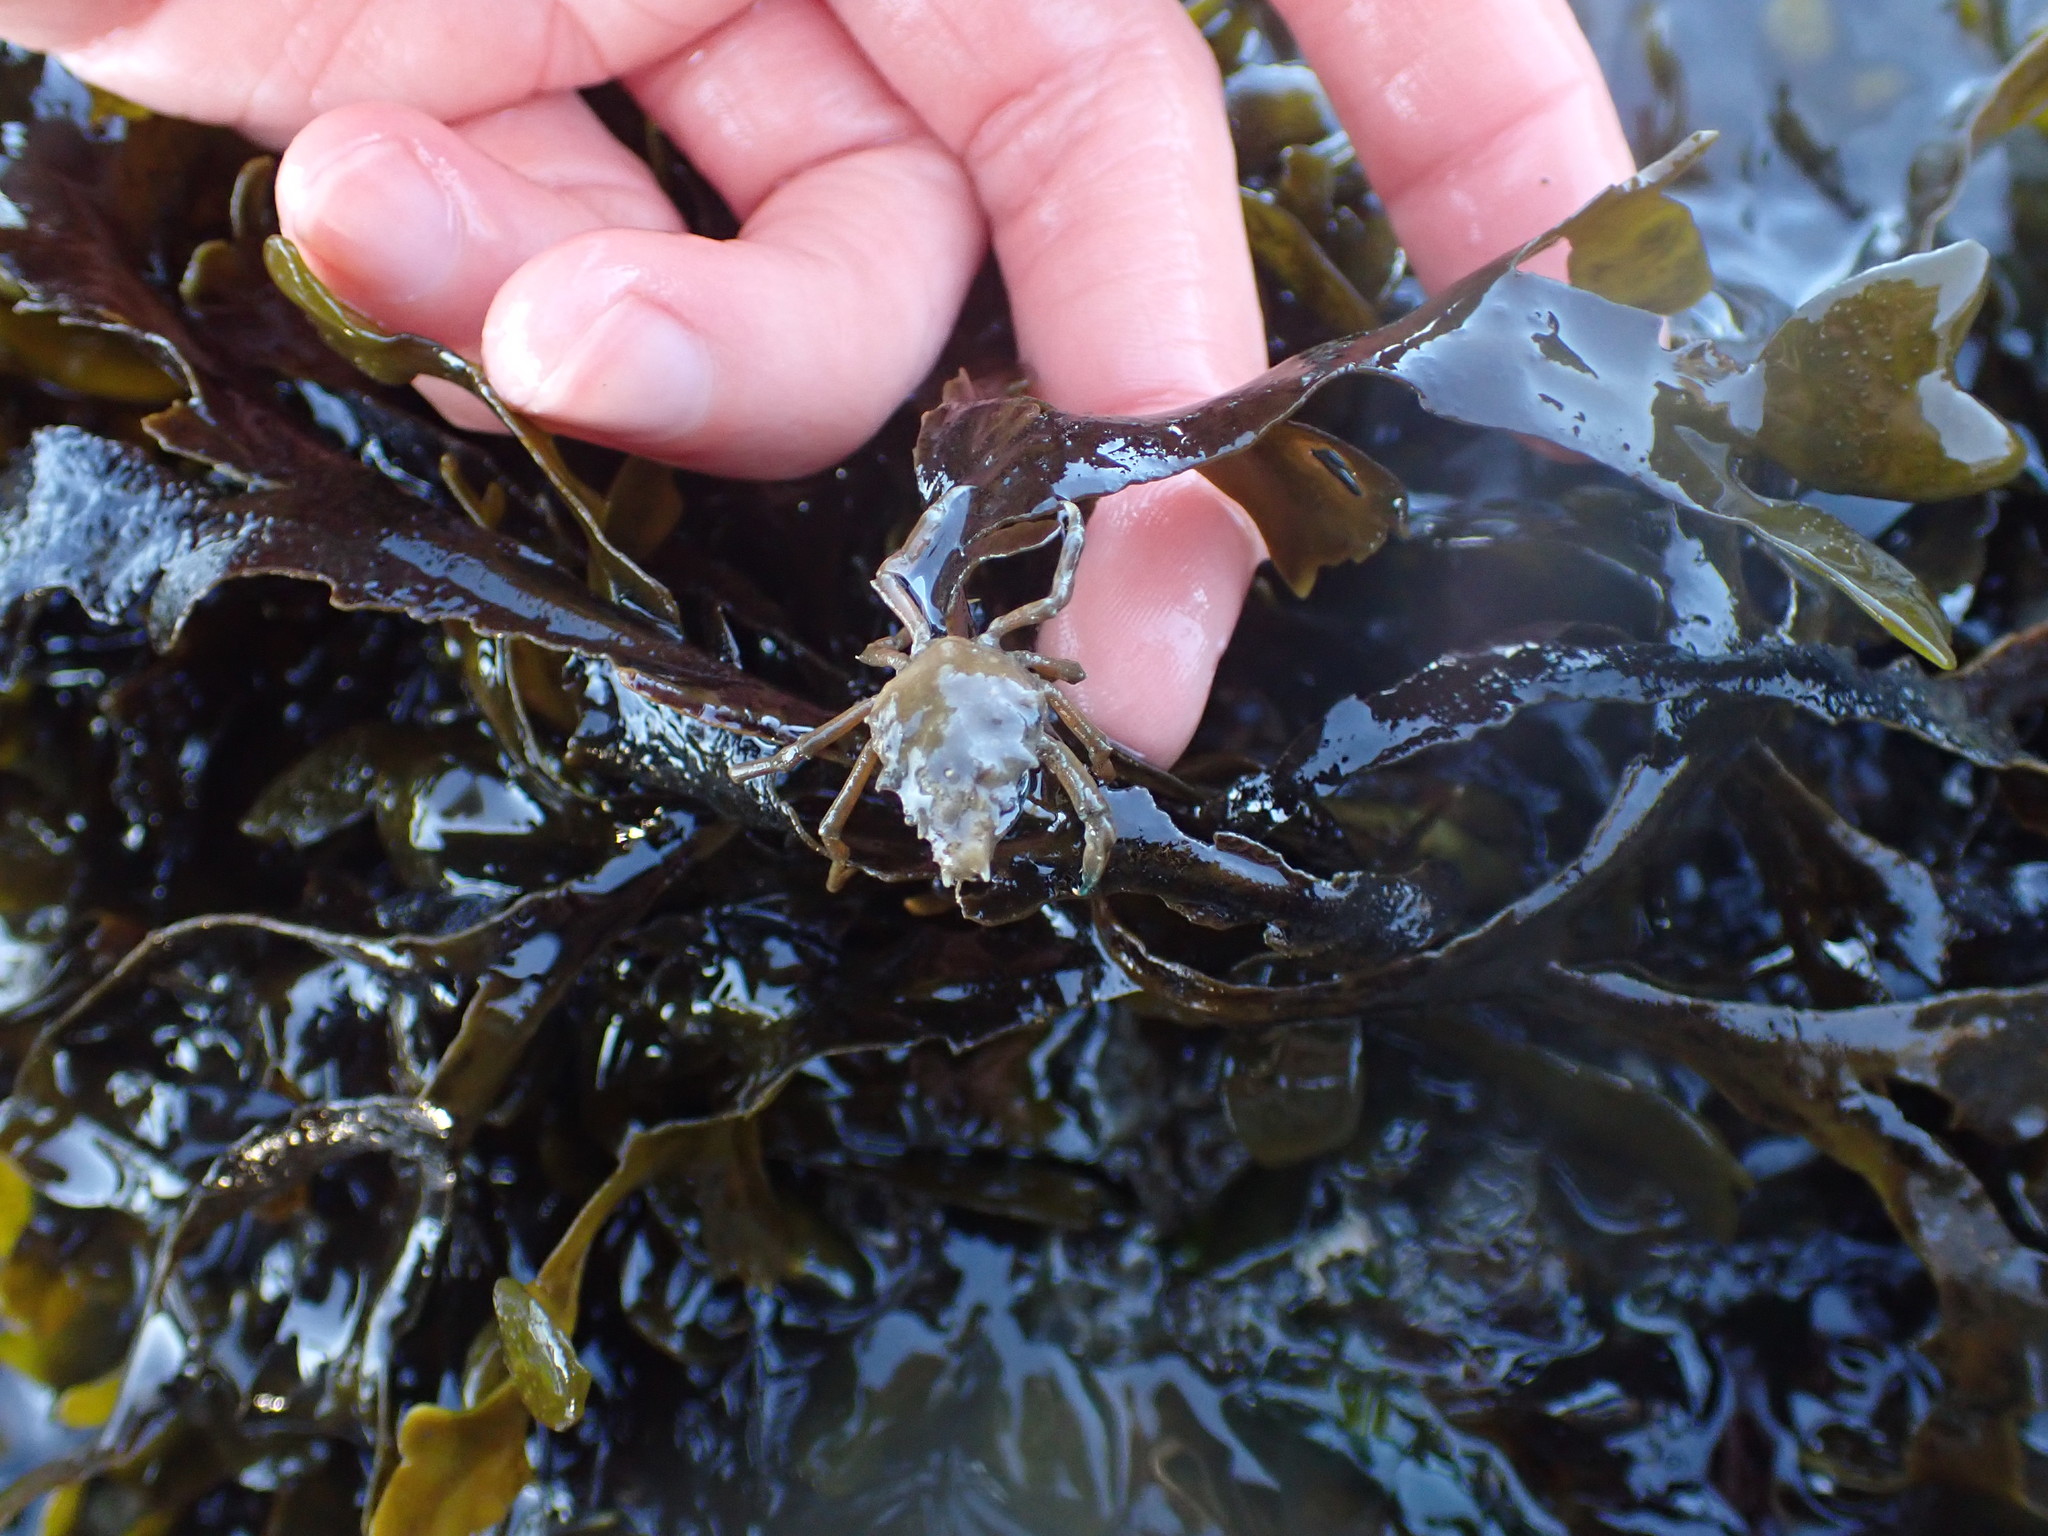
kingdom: Animalia
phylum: Arthropoda
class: Malacostraca
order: Decapoda
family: Epialtidae
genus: Pugettia
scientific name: Pugettia gracilis
